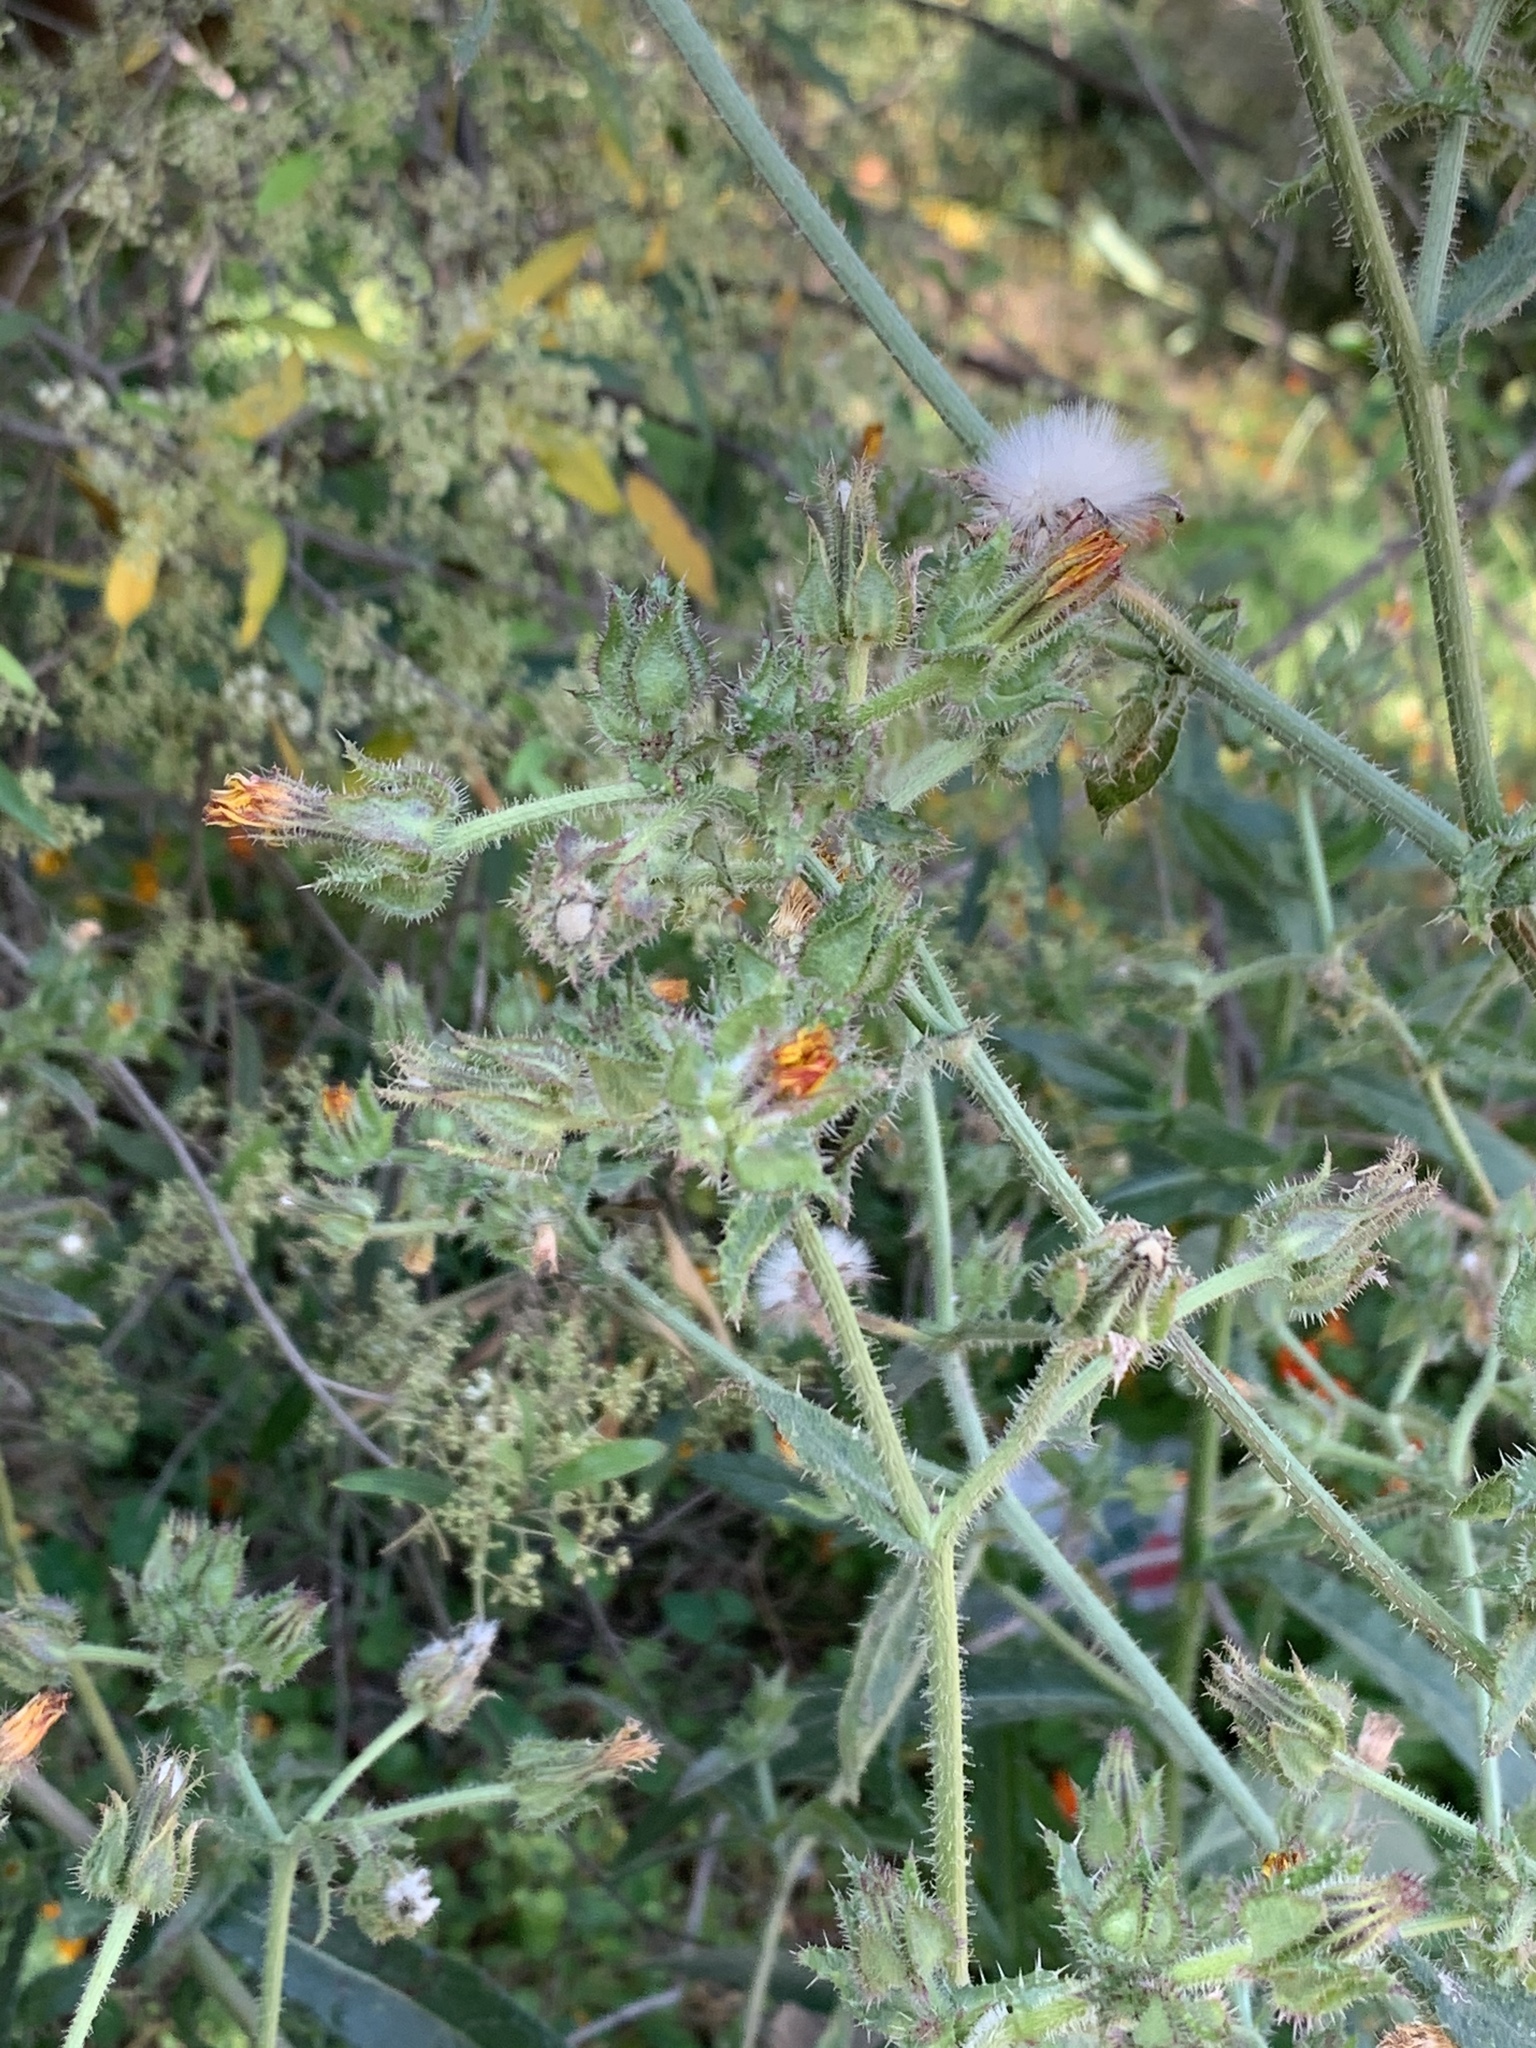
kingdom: Plantae
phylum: Tracheophyta
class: Magnoliopsida
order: Asterales
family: Asteraceae
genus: Helminthotheca
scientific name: Helminthotheca echioides
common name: Ox-tongue
